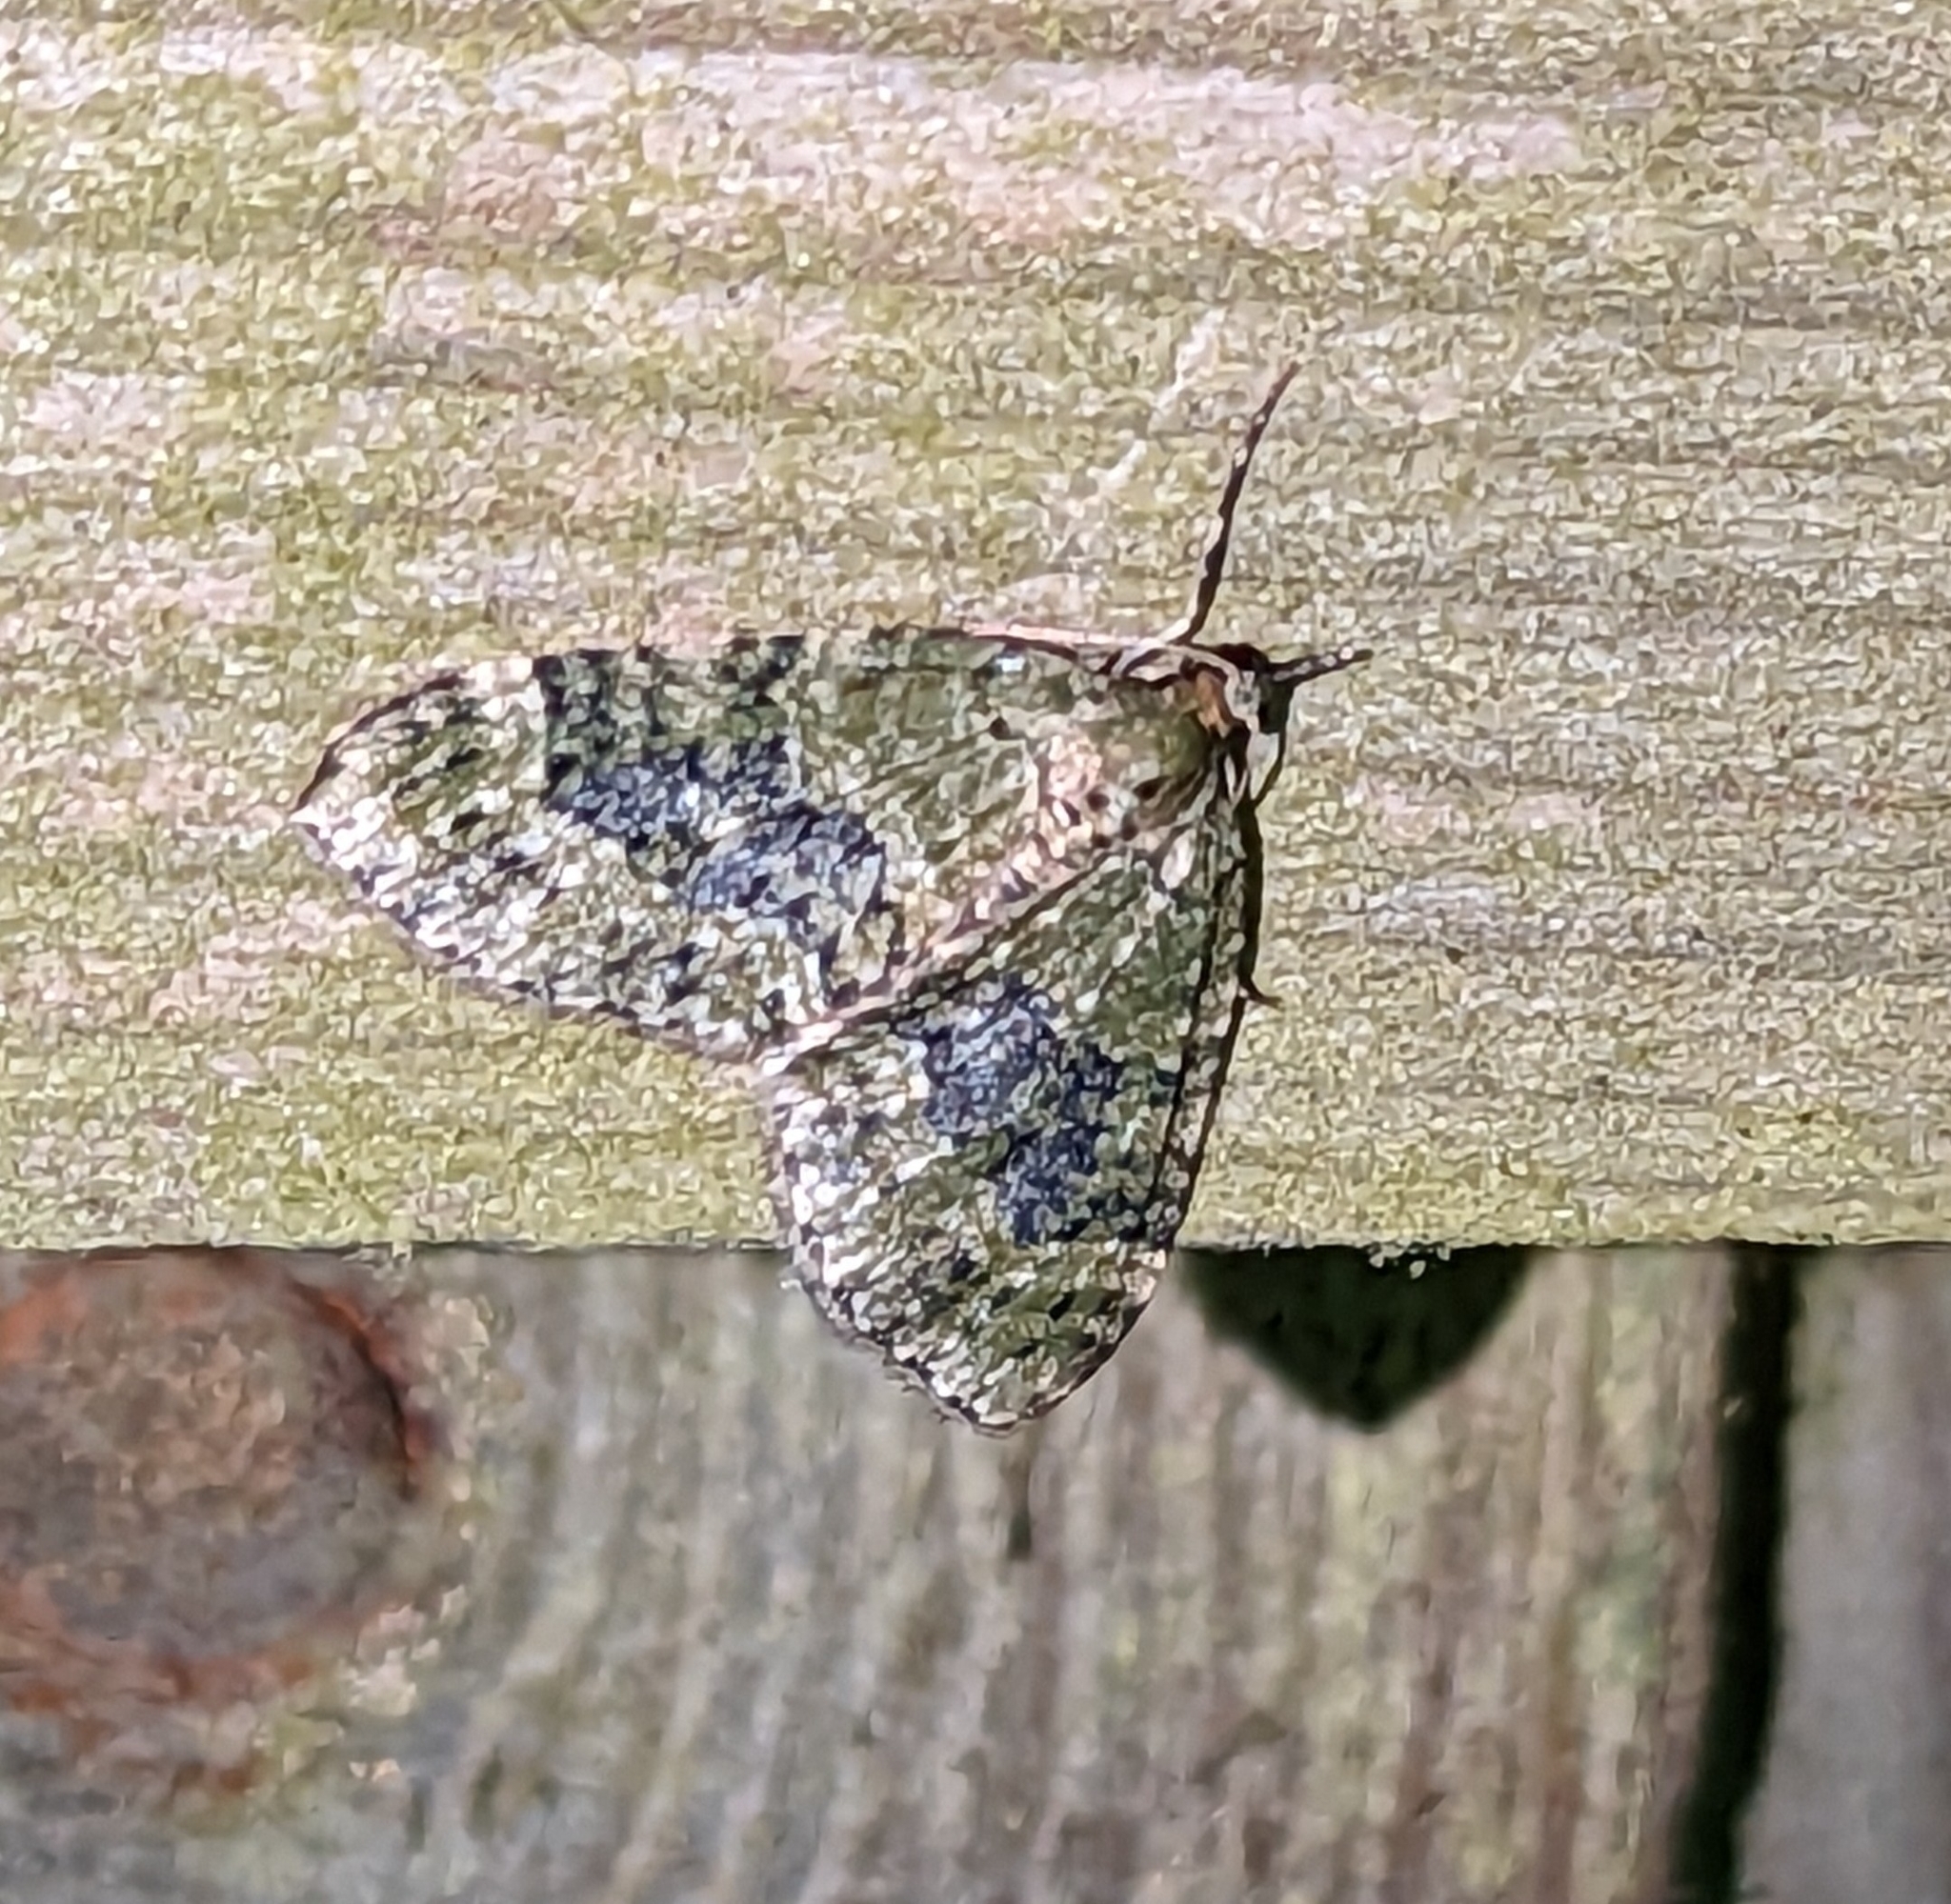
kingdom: Animalia
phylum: Arthropoda
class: Insecta
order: Lepidoptera
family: Geometridae
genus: Acasis
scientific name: Acasis viretata
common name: Yellow-barred brindle
